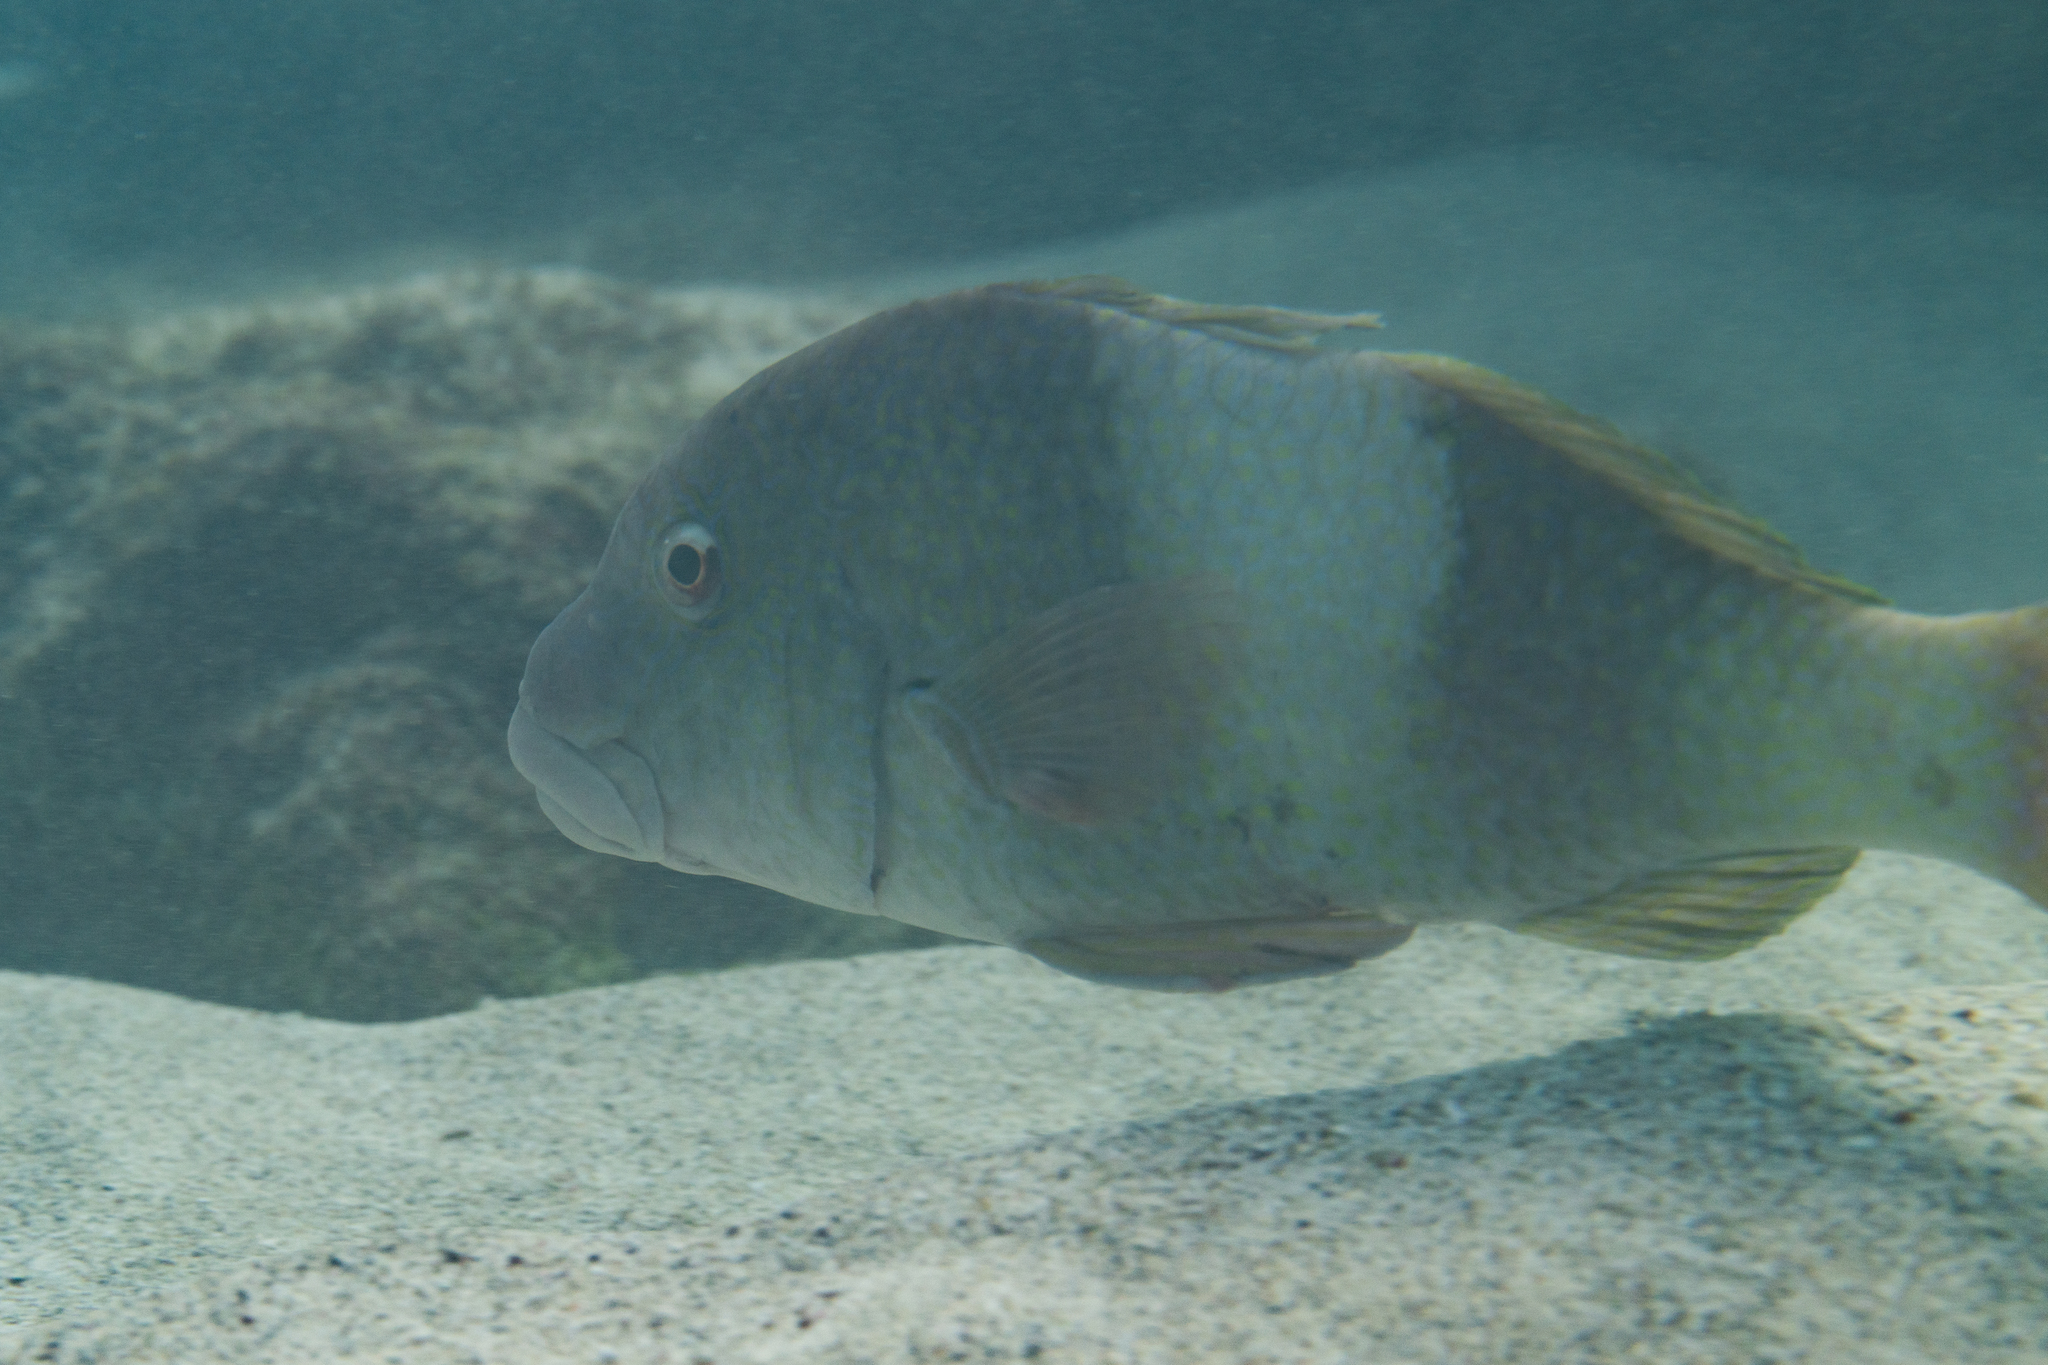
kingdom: Animalia
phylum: Chordata
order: Perciformes
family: Mullidae
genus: Parupeneus
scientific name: Parupeneus insularis
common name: Doublebar goatfish
